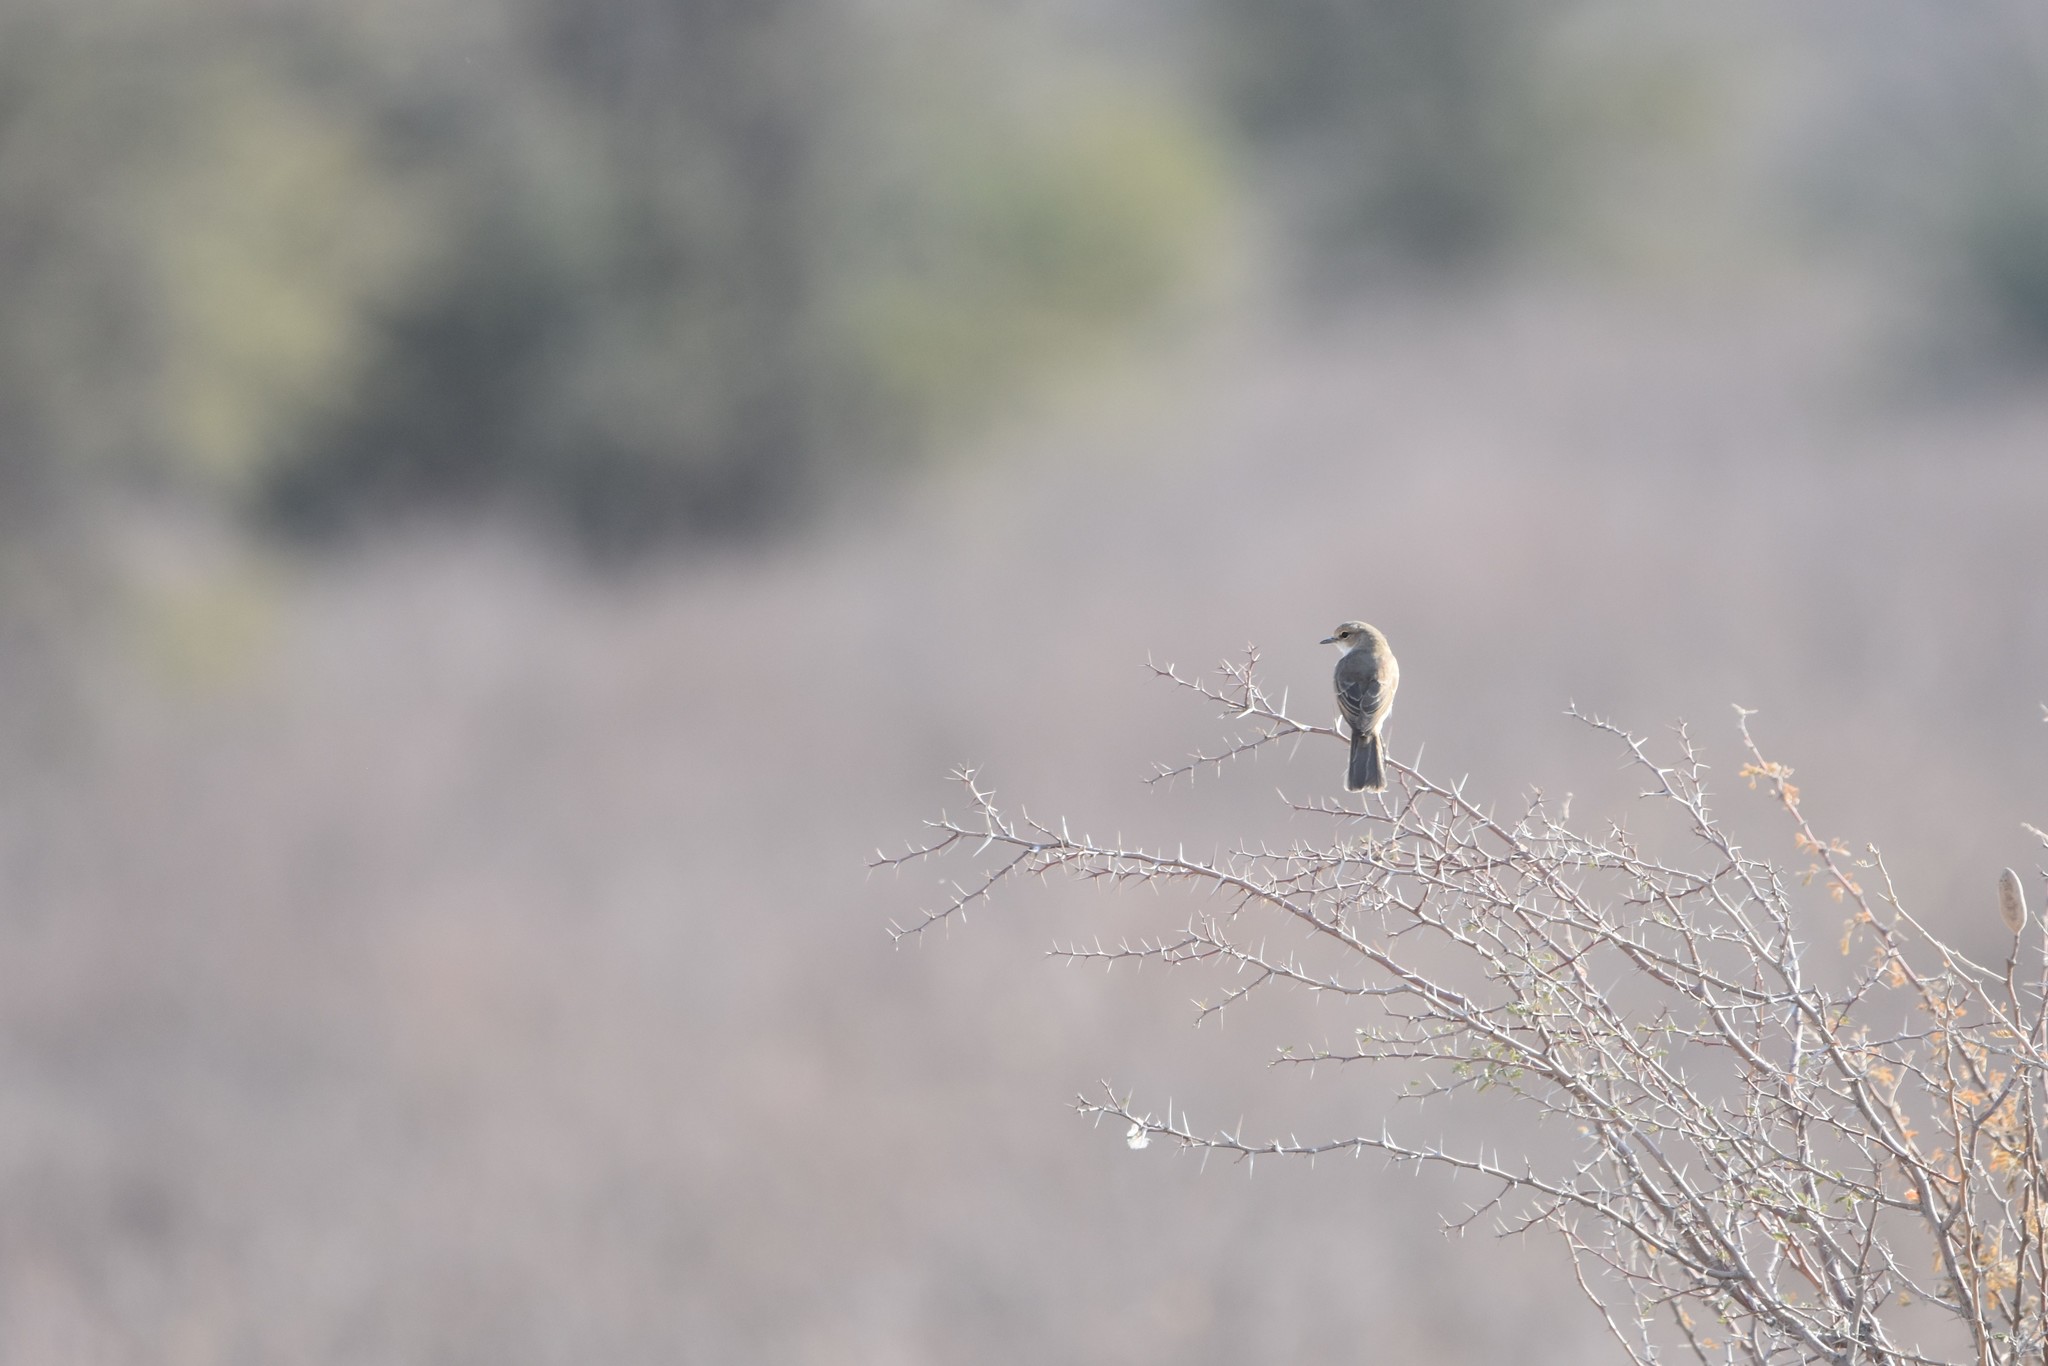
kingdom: Animalia
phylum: Chordata
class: Aves
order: Passeriformes
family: Muscicapidae
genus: Bradornis
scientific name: Bradornis mariquensis
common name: Marico flycatcher
